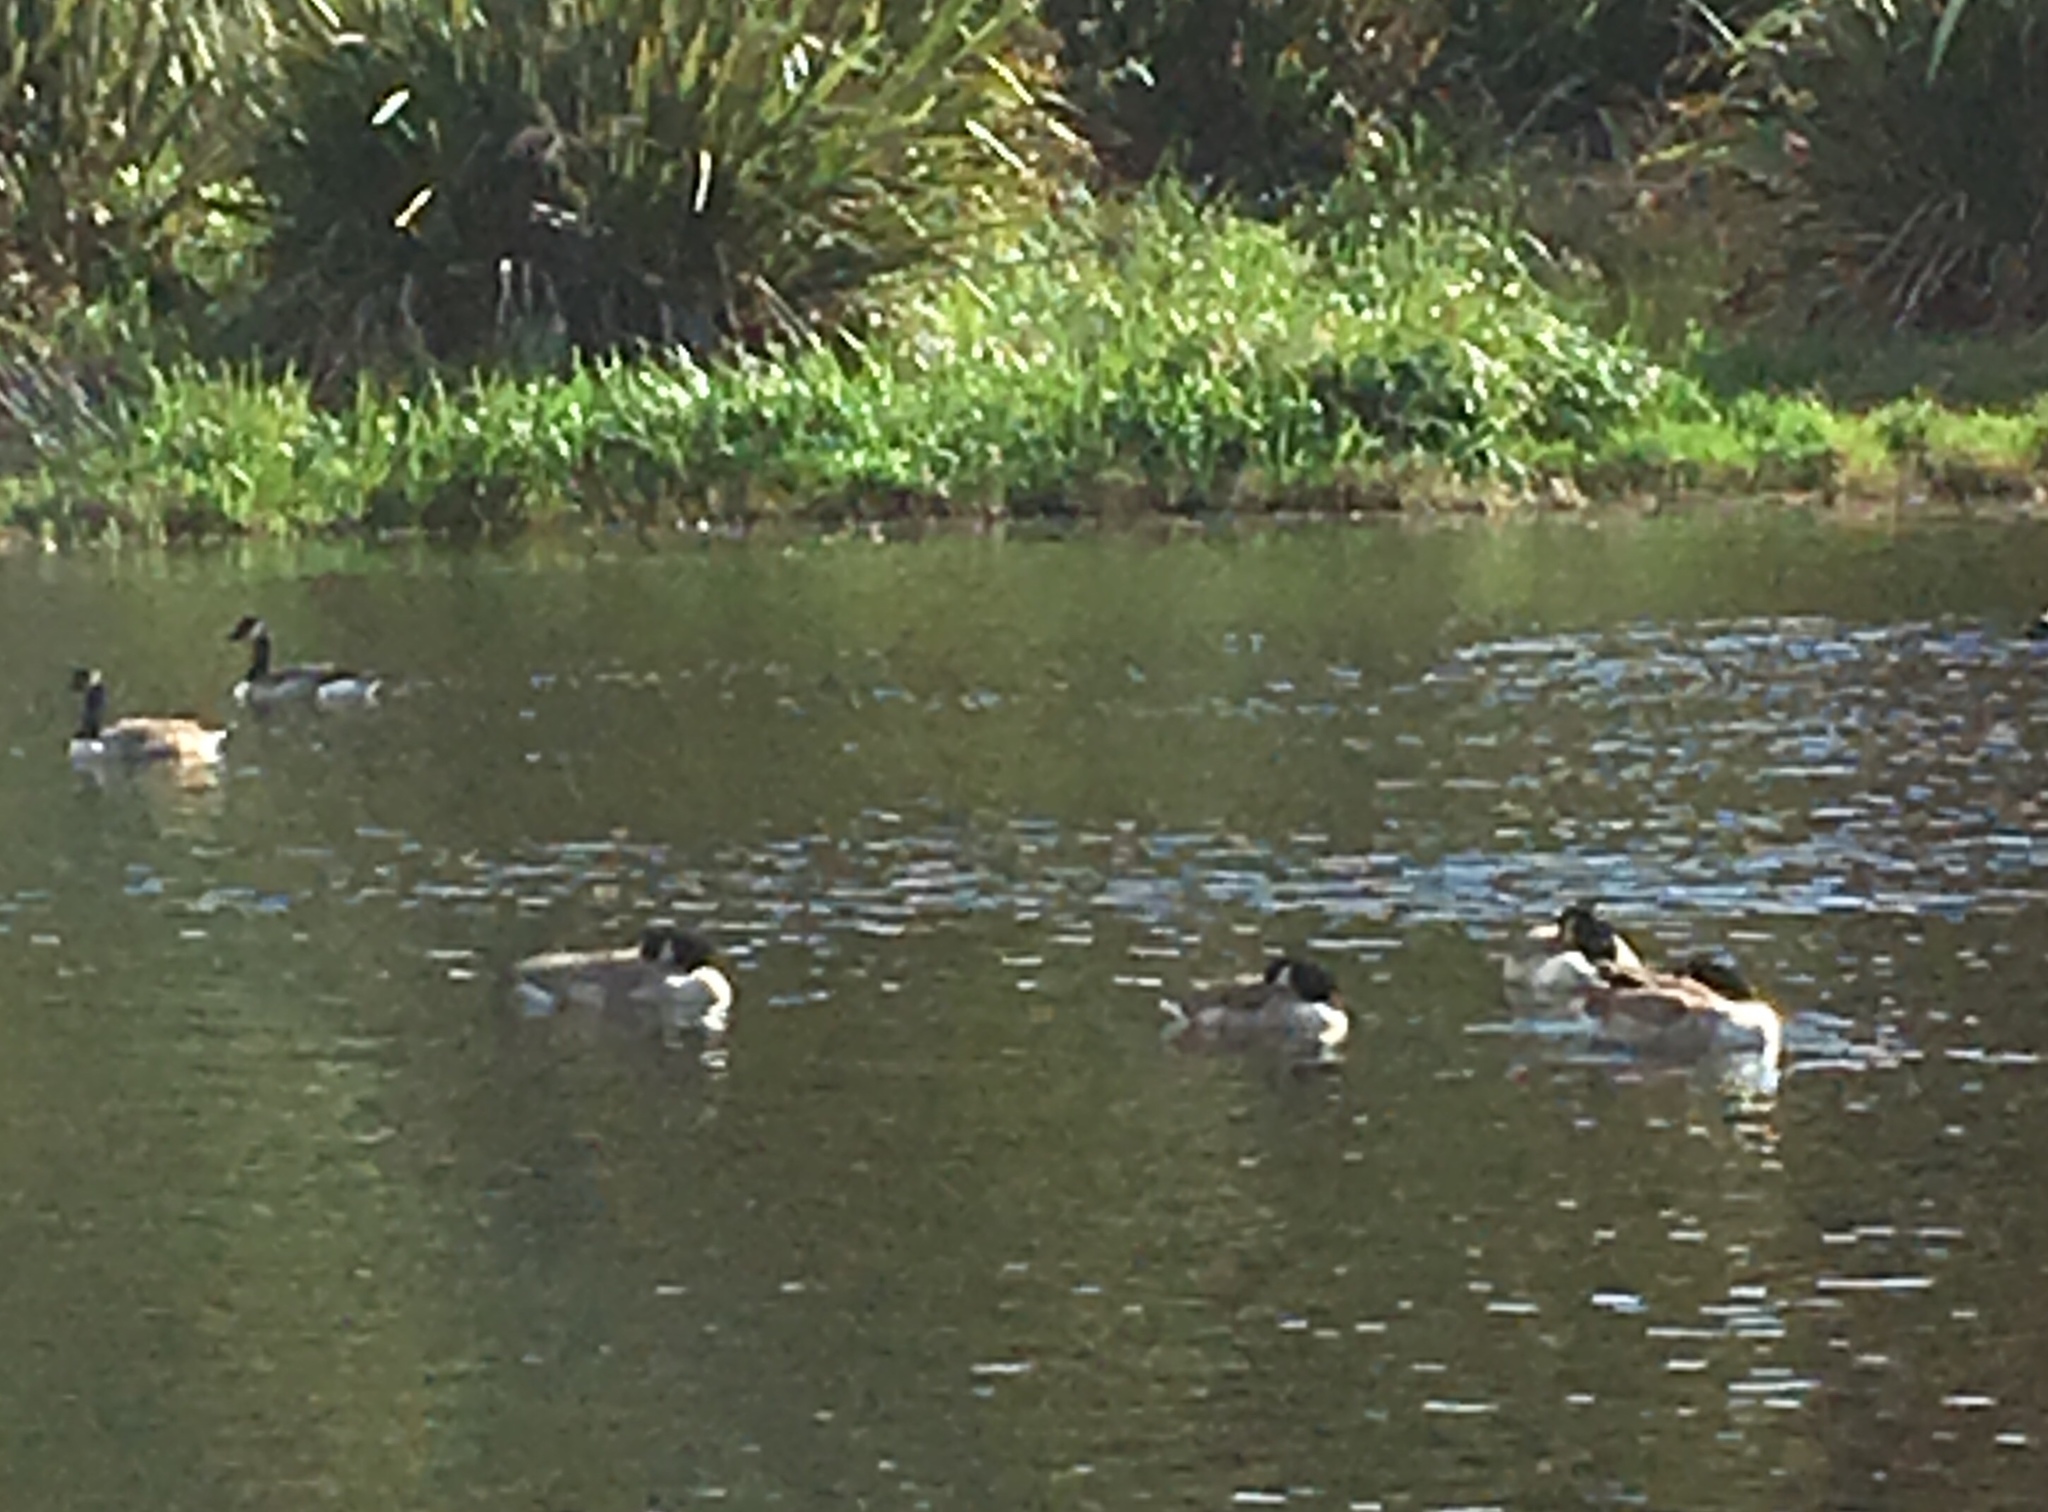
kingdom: Animalia
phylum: Chordata
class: Aves
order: Anseriformes
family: Anatidae
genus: Branta
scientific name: Branta canadensis
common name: Canada goose
